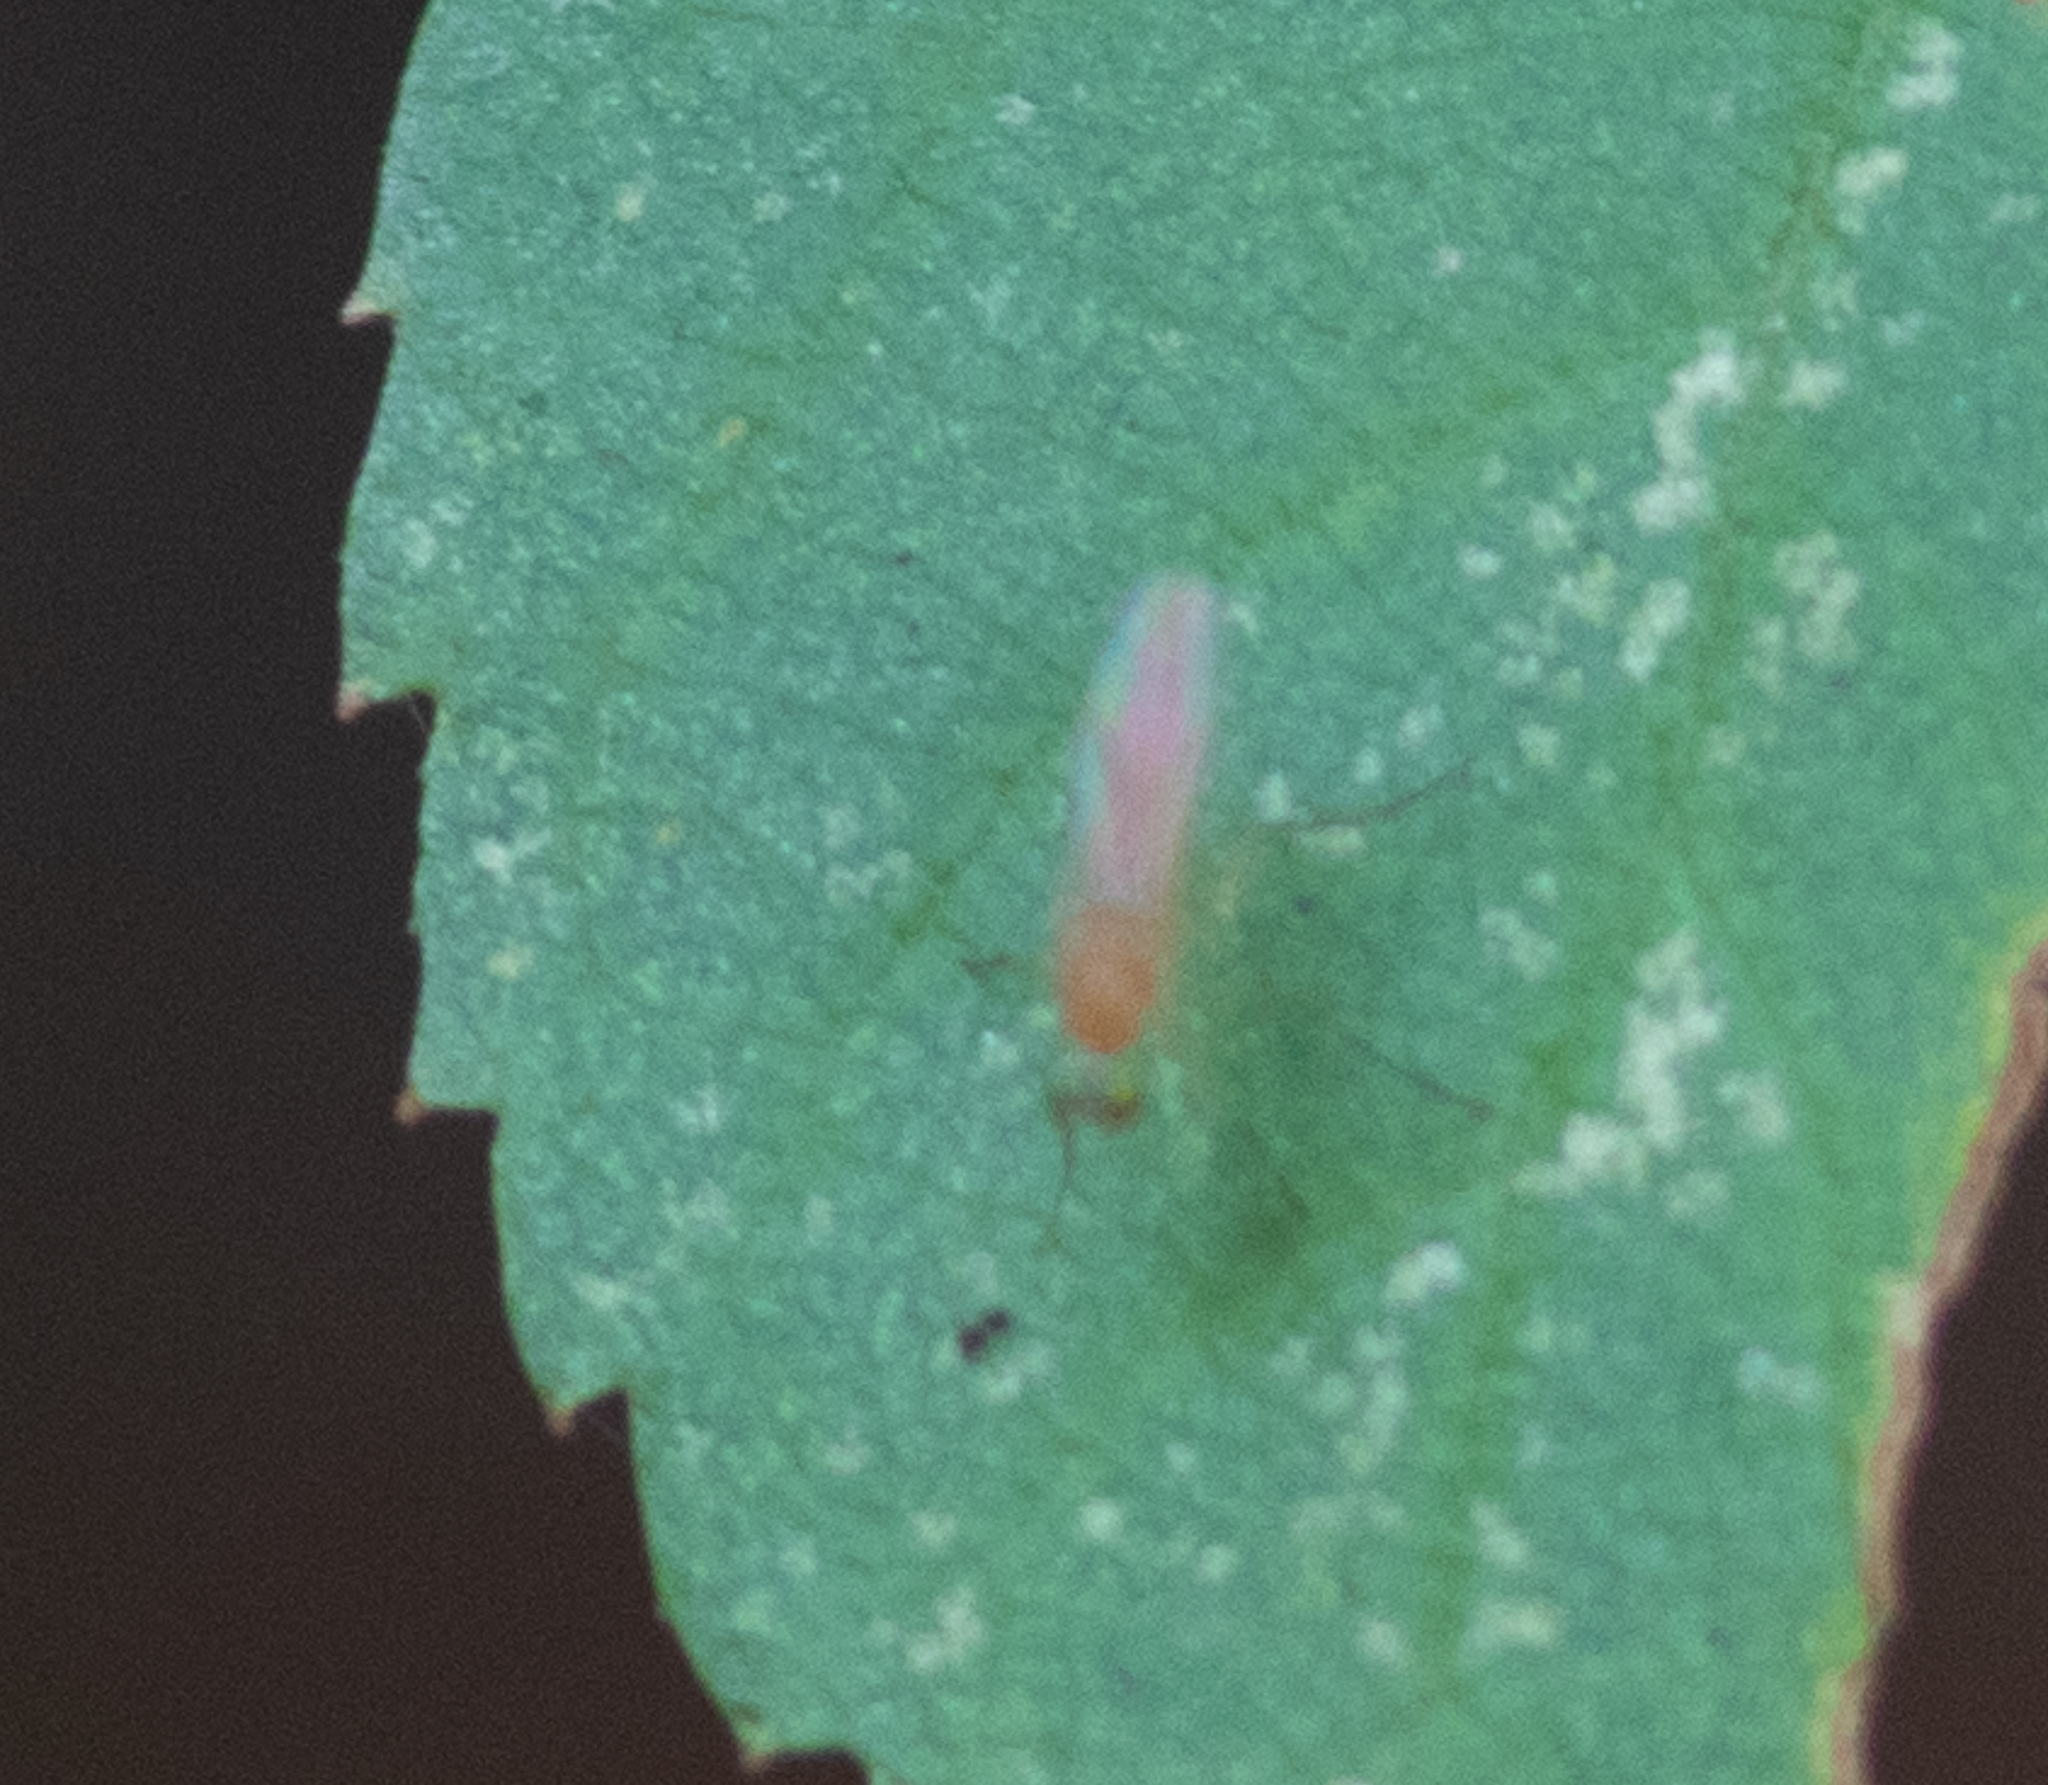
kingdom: Animalia
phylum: Arthropoda
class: Insecta
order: Diptera
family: Dolichopodidae
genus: Xanthochlorus
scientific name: Xanthochlorus helvinus
